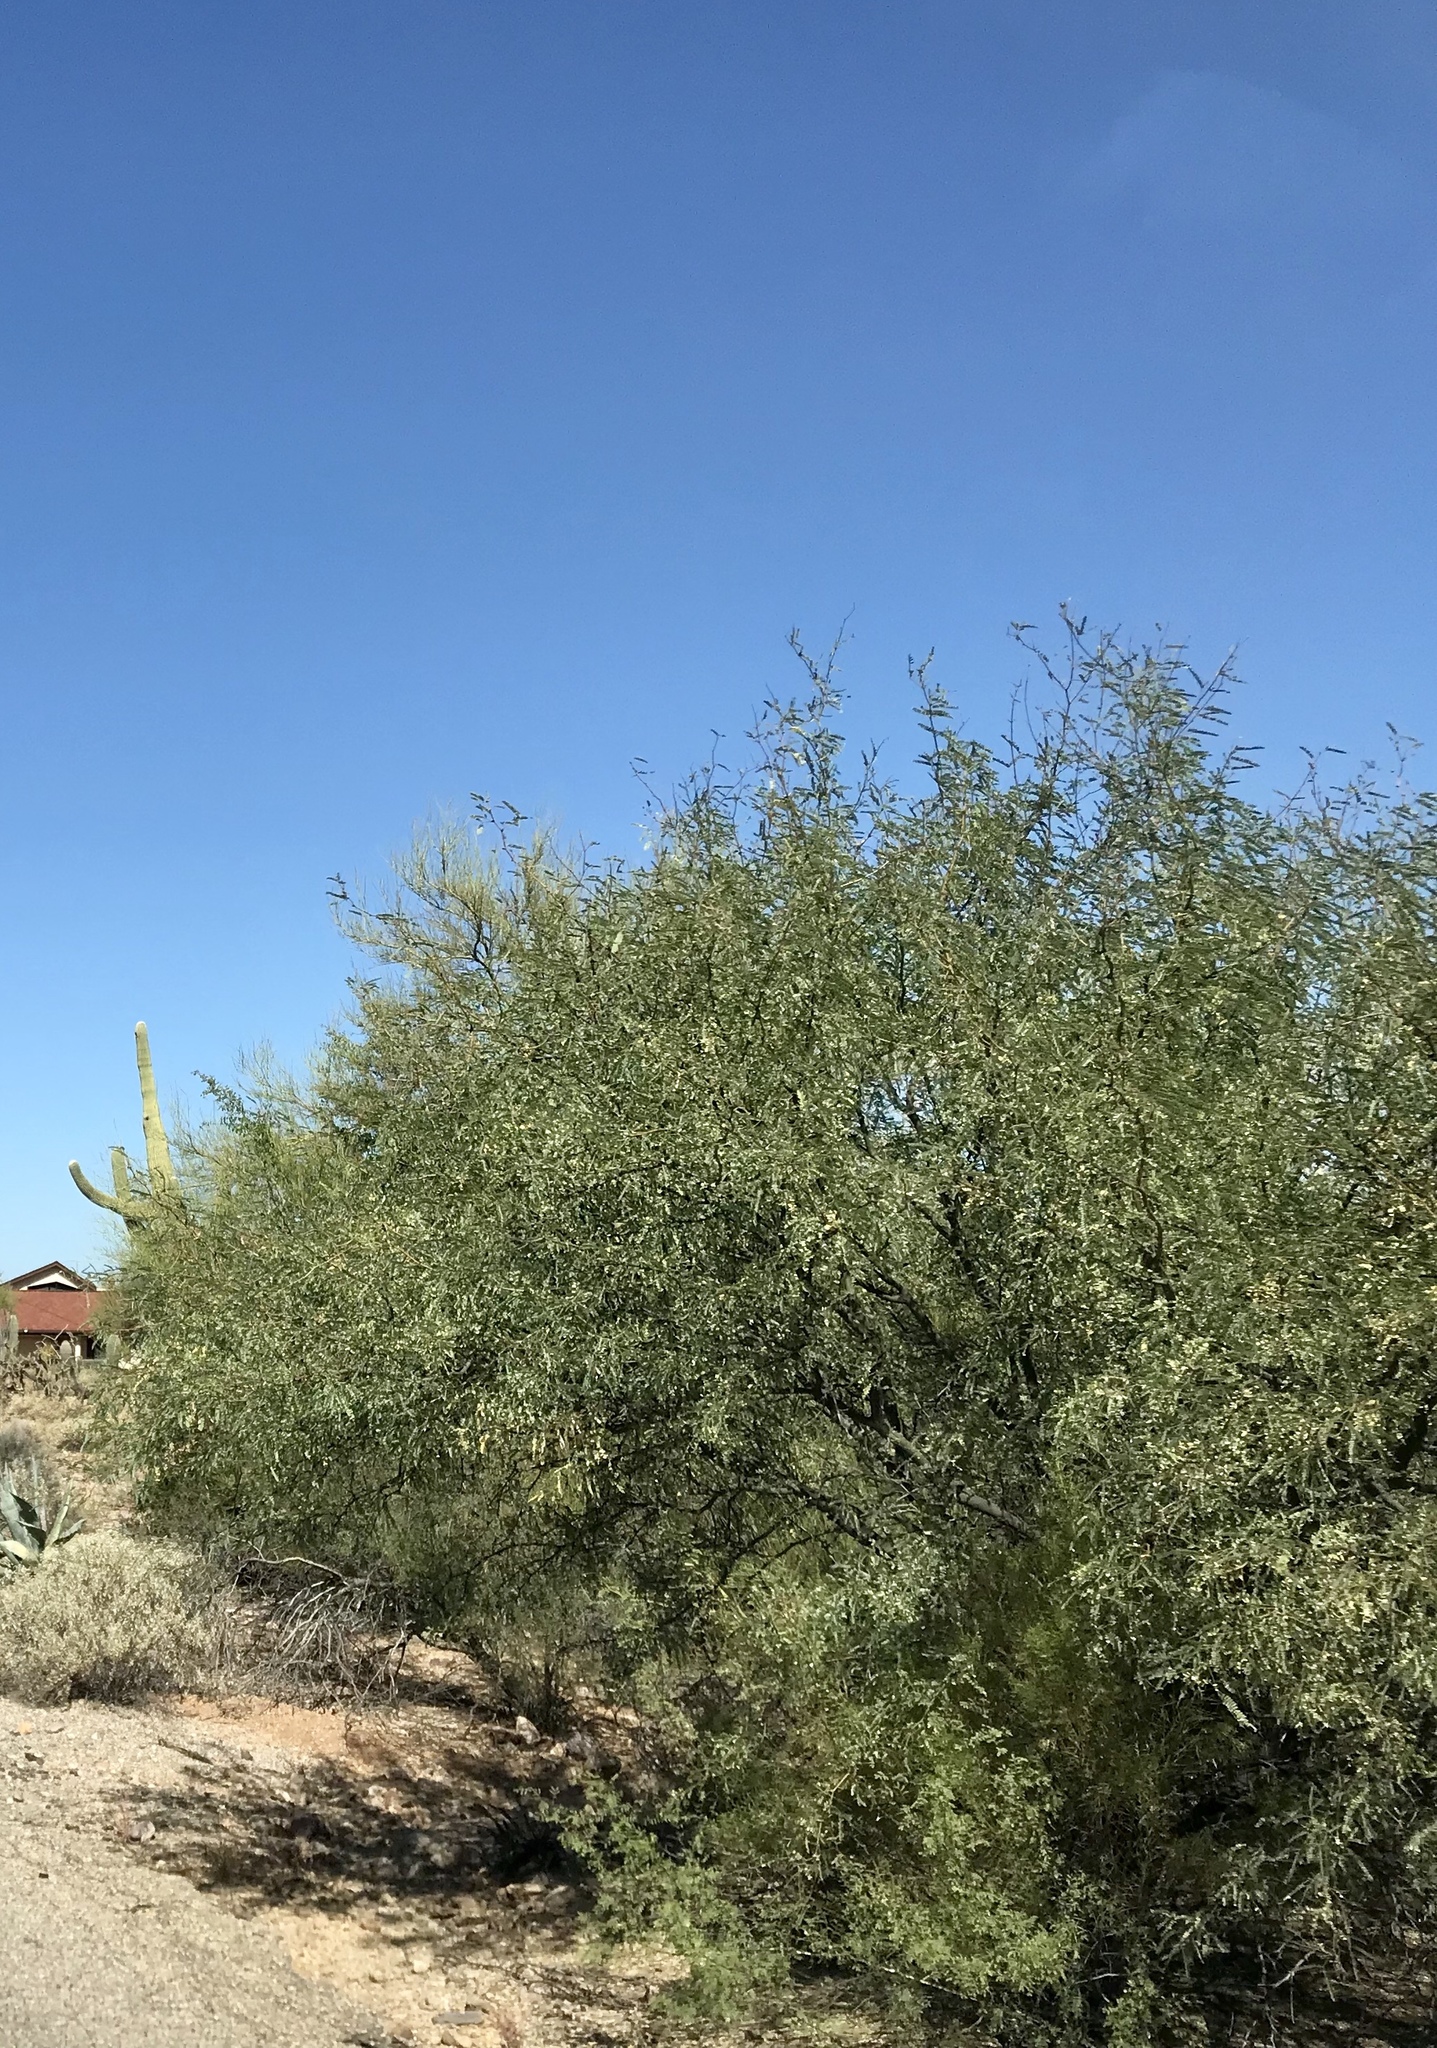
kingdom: Plantae
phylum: Tracheophyta
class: Magnoliopsida
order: Fabales
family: Fabaceae
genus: Prosopis
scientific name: Prosopis velutina
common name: Velvet mesquite
